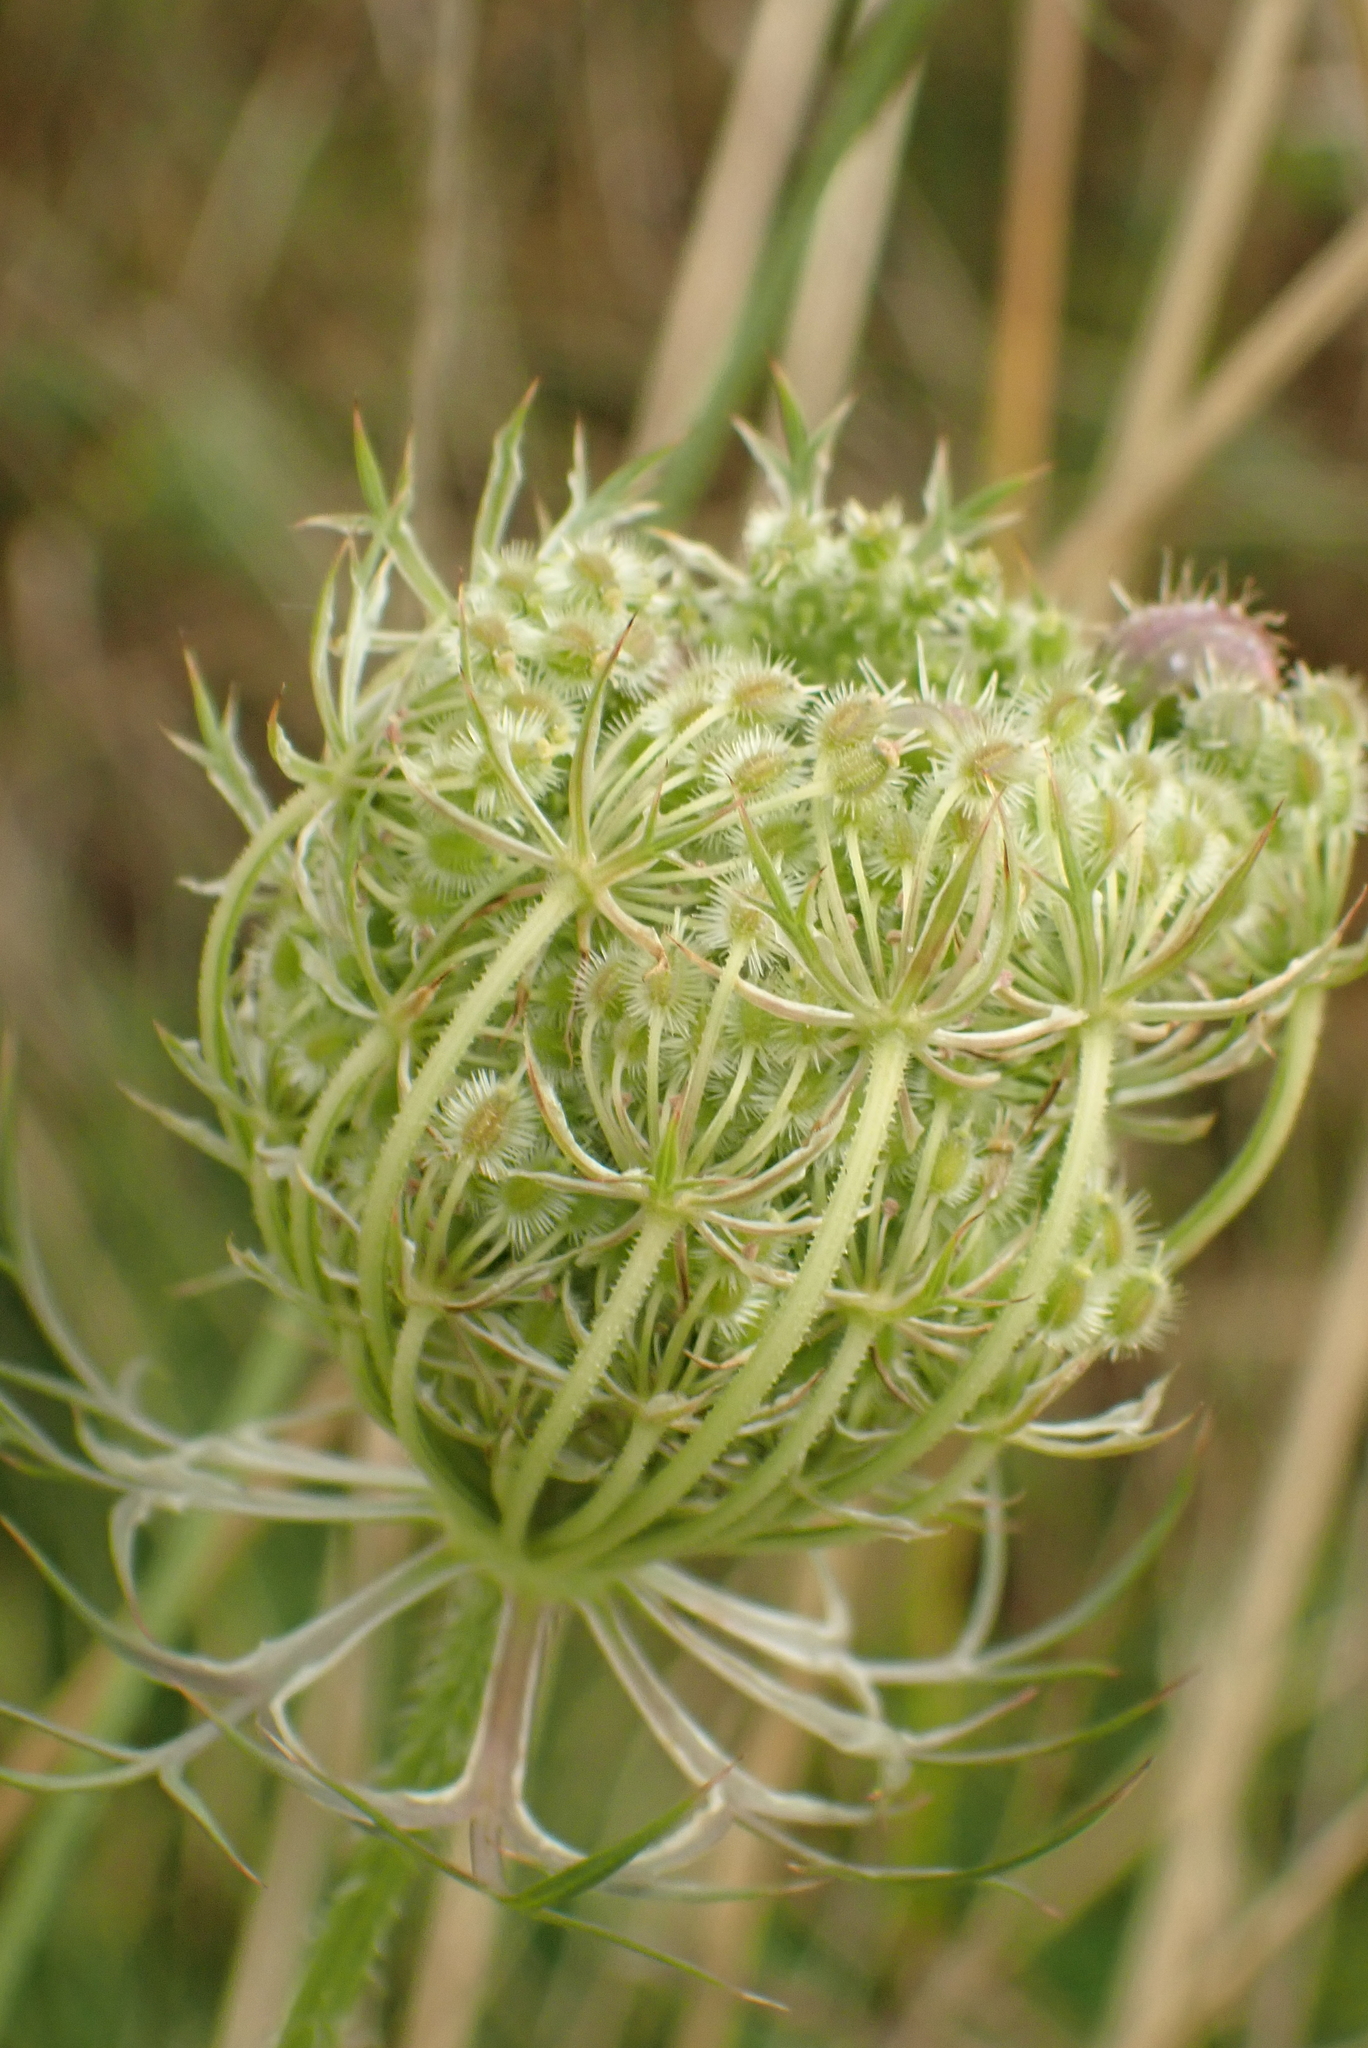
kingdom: Plantae
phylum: Tracheophyta
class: Magnoliopsida
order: Apiales
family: Apiaceae
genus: Daucus
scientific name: Daucus carota
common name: Wild carrot
